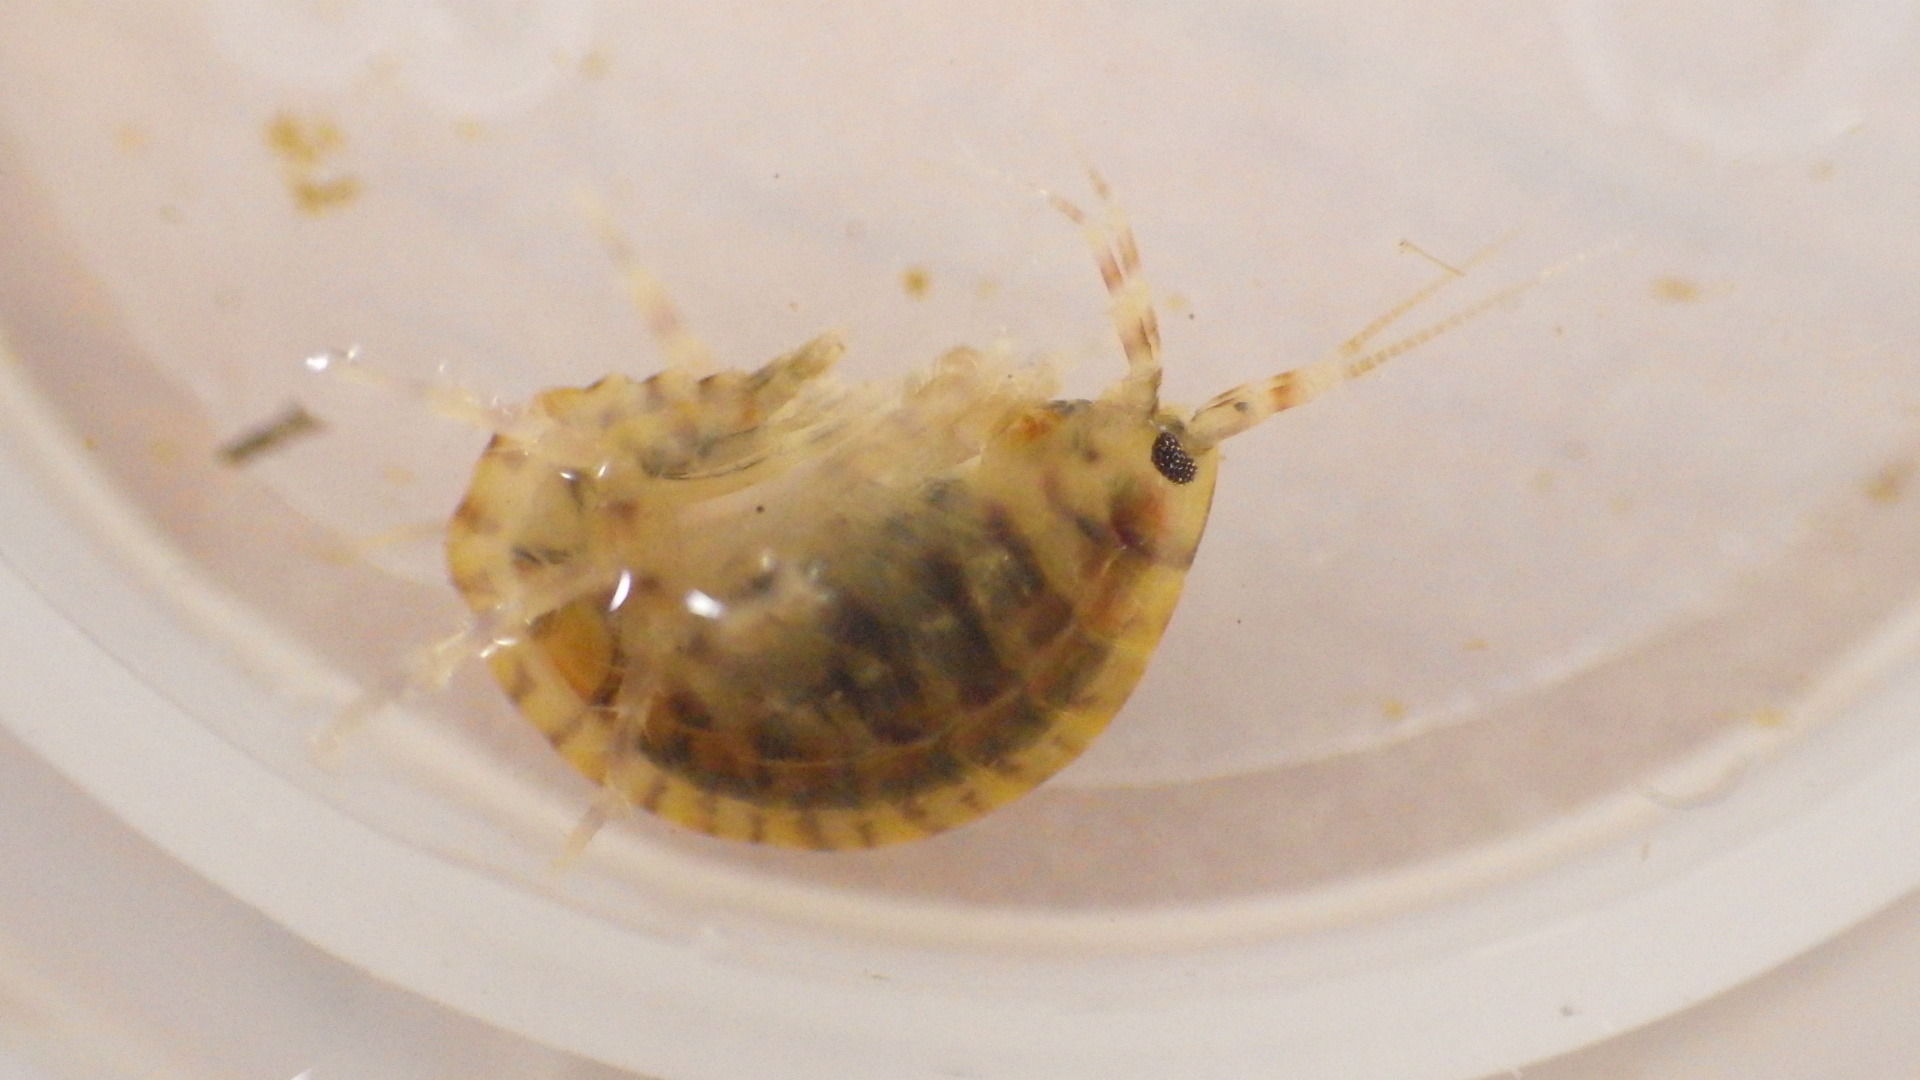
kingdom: Animalia
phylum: Arthropoda
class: Malacostraca
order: Amphipoda
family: Gammaridae
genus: Gammarus
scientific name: Gammarus fasciatus
